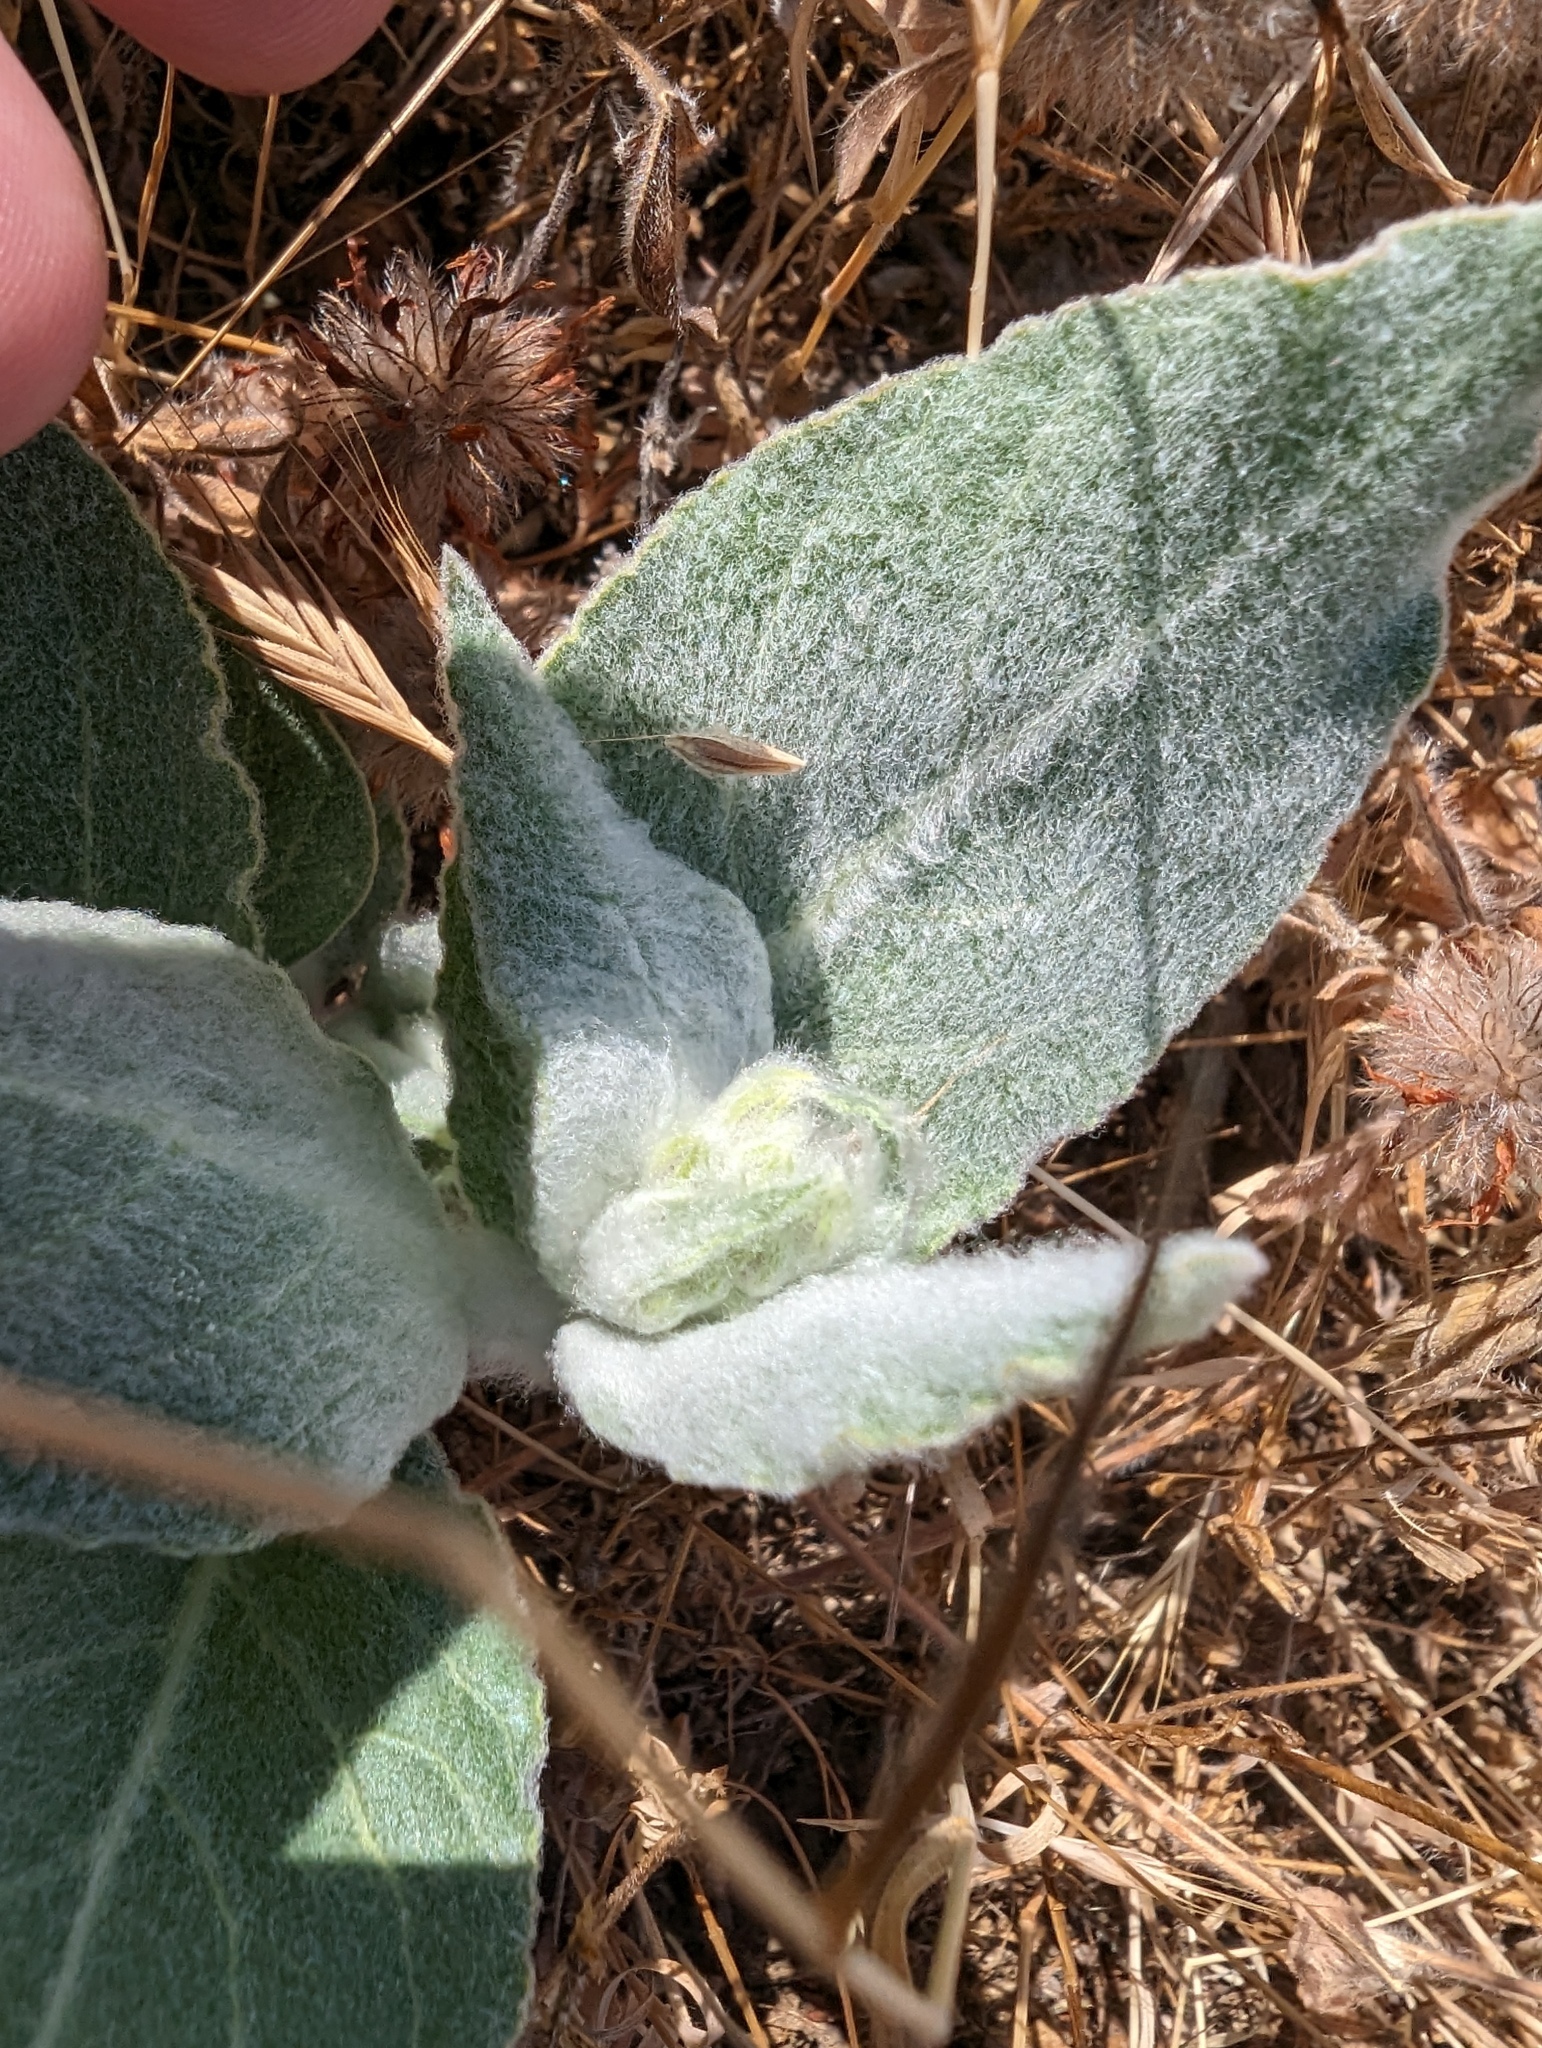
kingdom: Plantae
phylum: Tracheophyta
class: Magnoliopsida
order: Gentianales
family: Apocynaceae
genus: Asclepias
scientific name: Asclepias californica
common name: California milkweed
